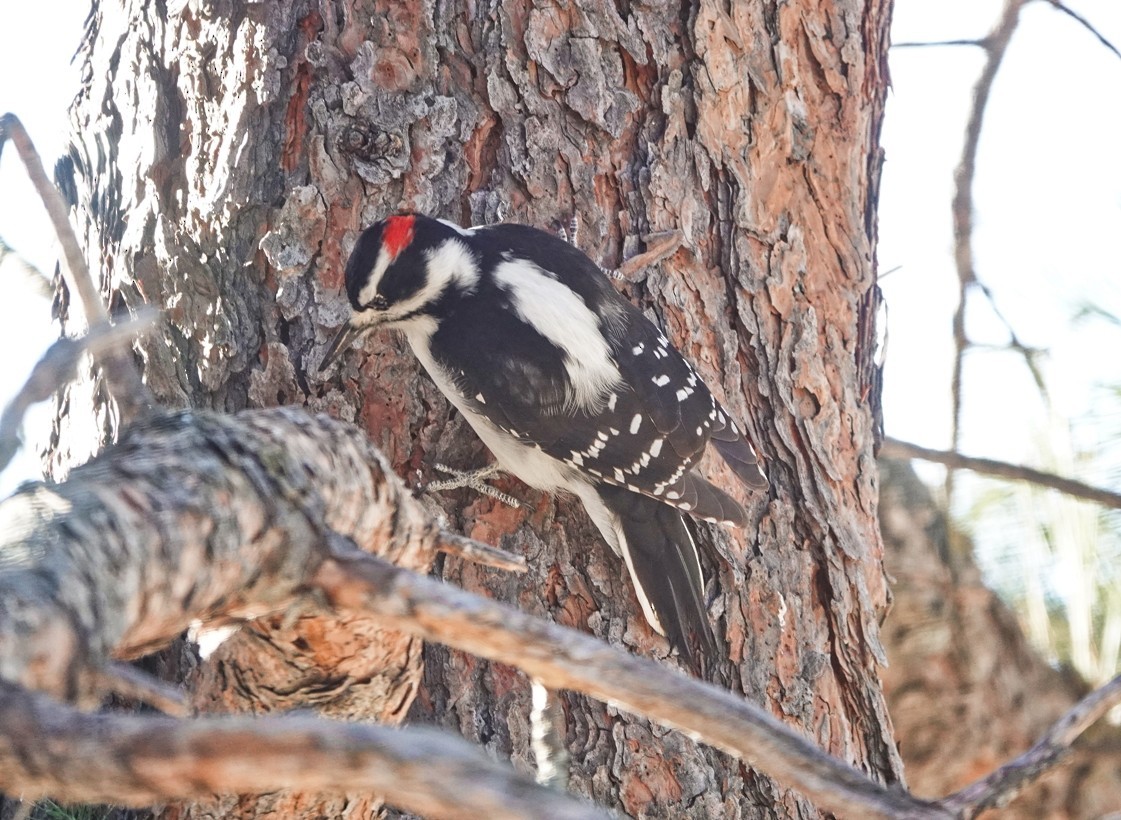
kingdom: Animalia
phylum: Chordata
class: Aves
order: Piciformes
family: Picidae
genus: Leuconotopicus
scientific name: Leuconotopicus villosus
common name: Hairy woodpecker
